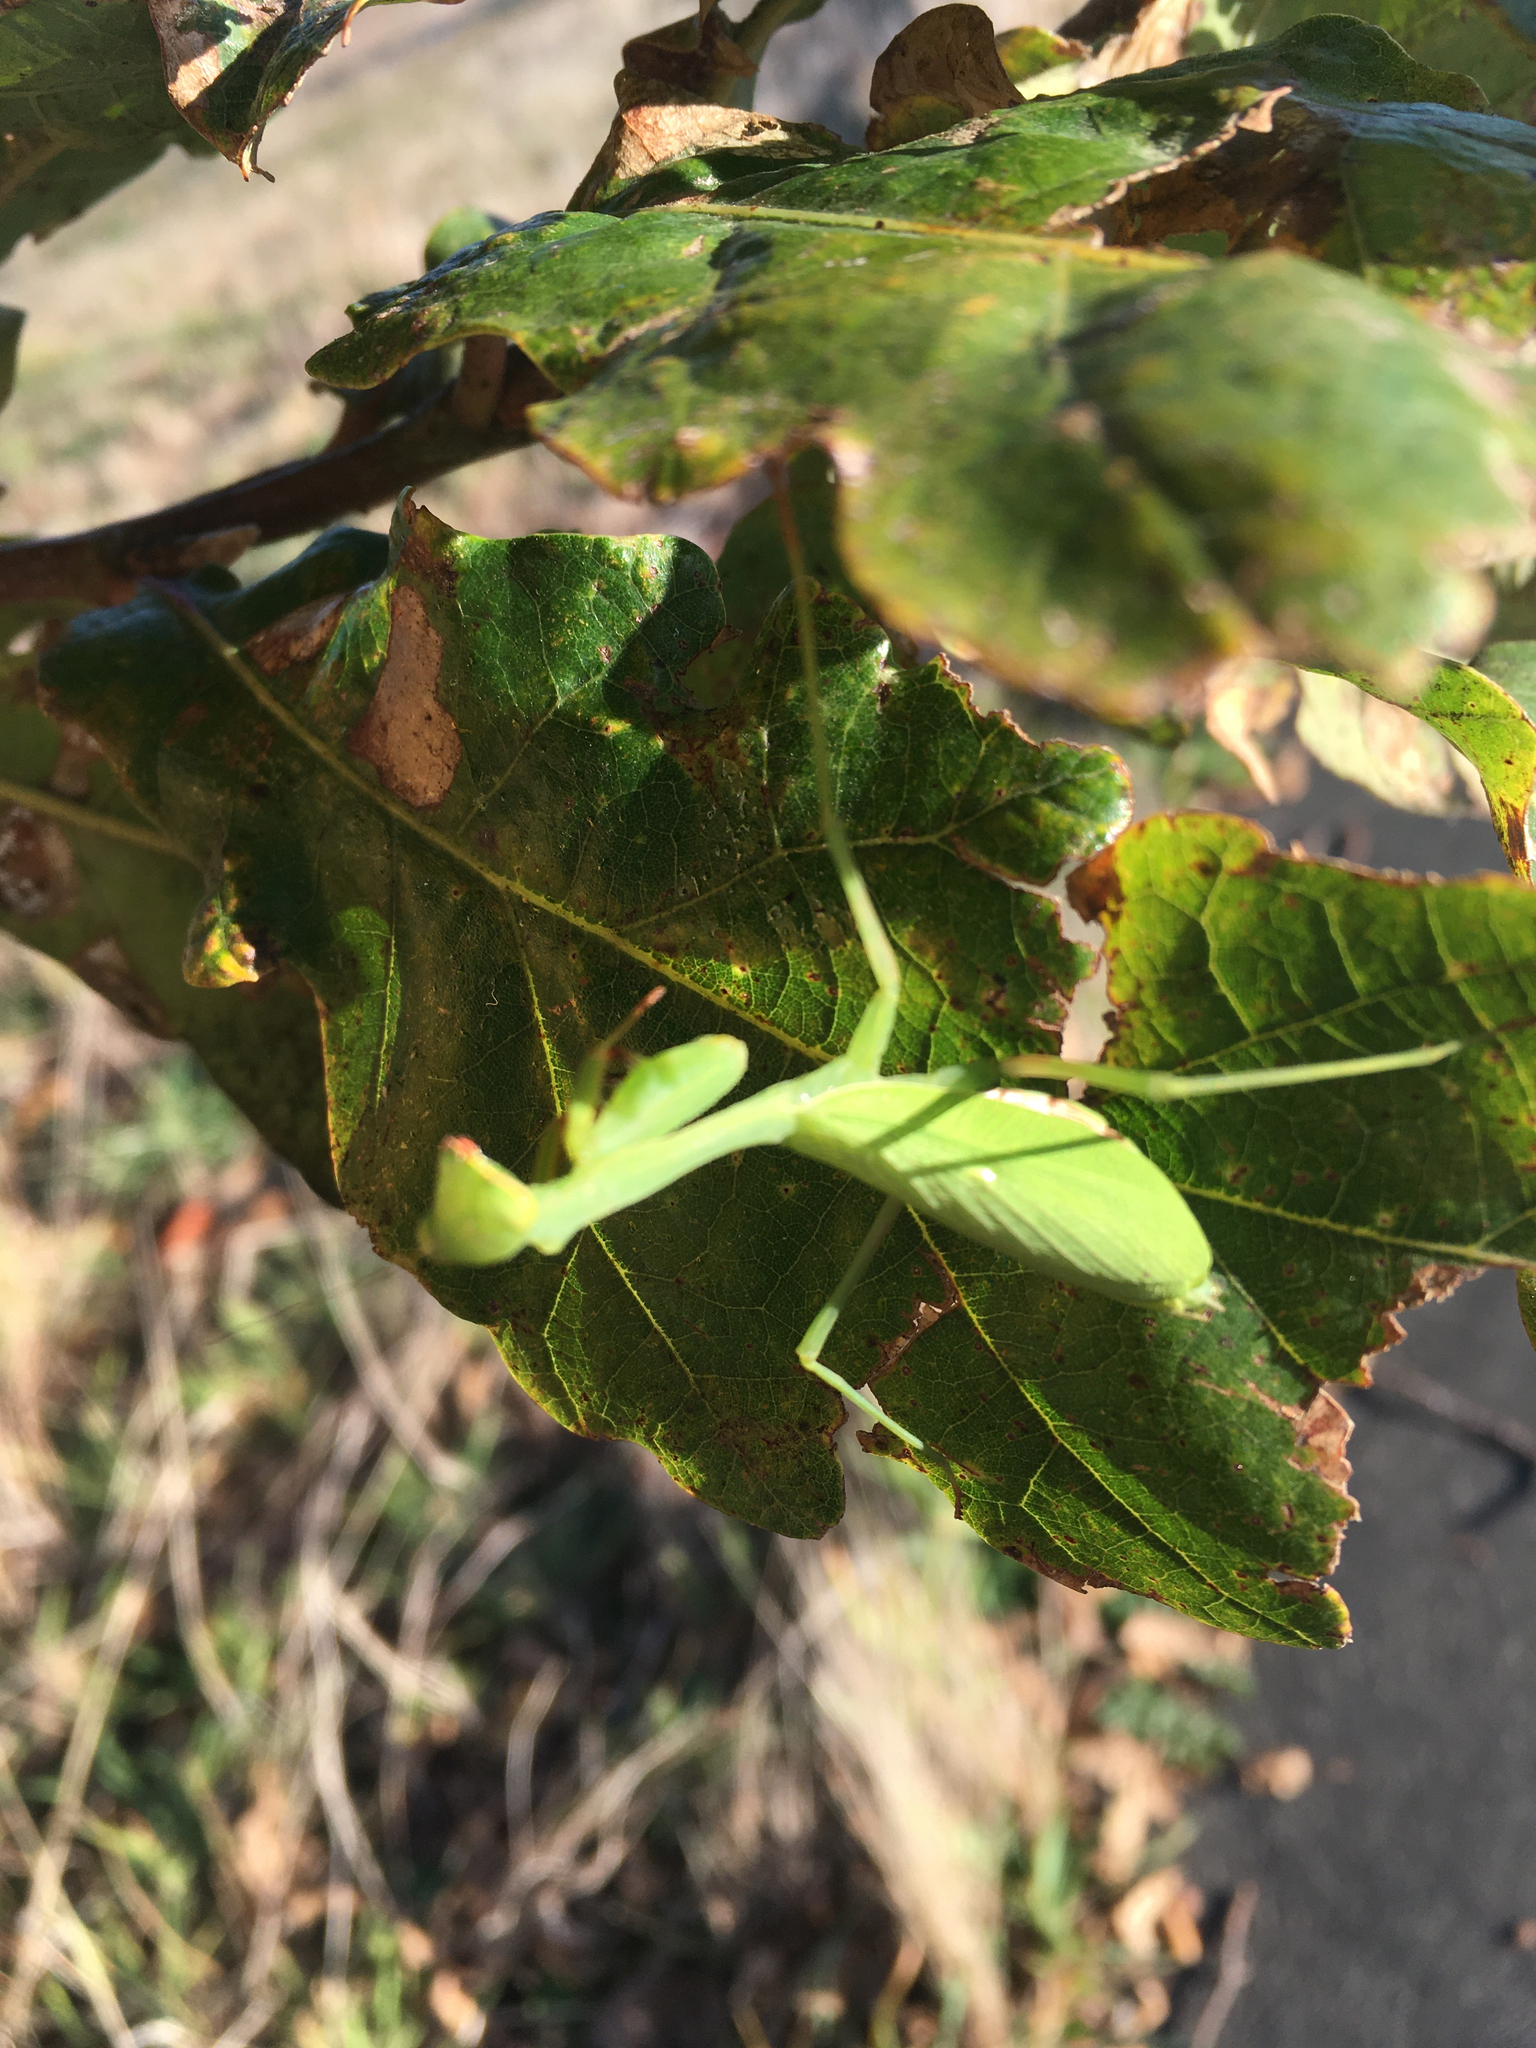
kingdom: Animalia
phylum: Arthropoda
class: Insecta
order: Mantodea
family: Miomantidae
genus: Miomantis
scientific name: Miomantis caffra
